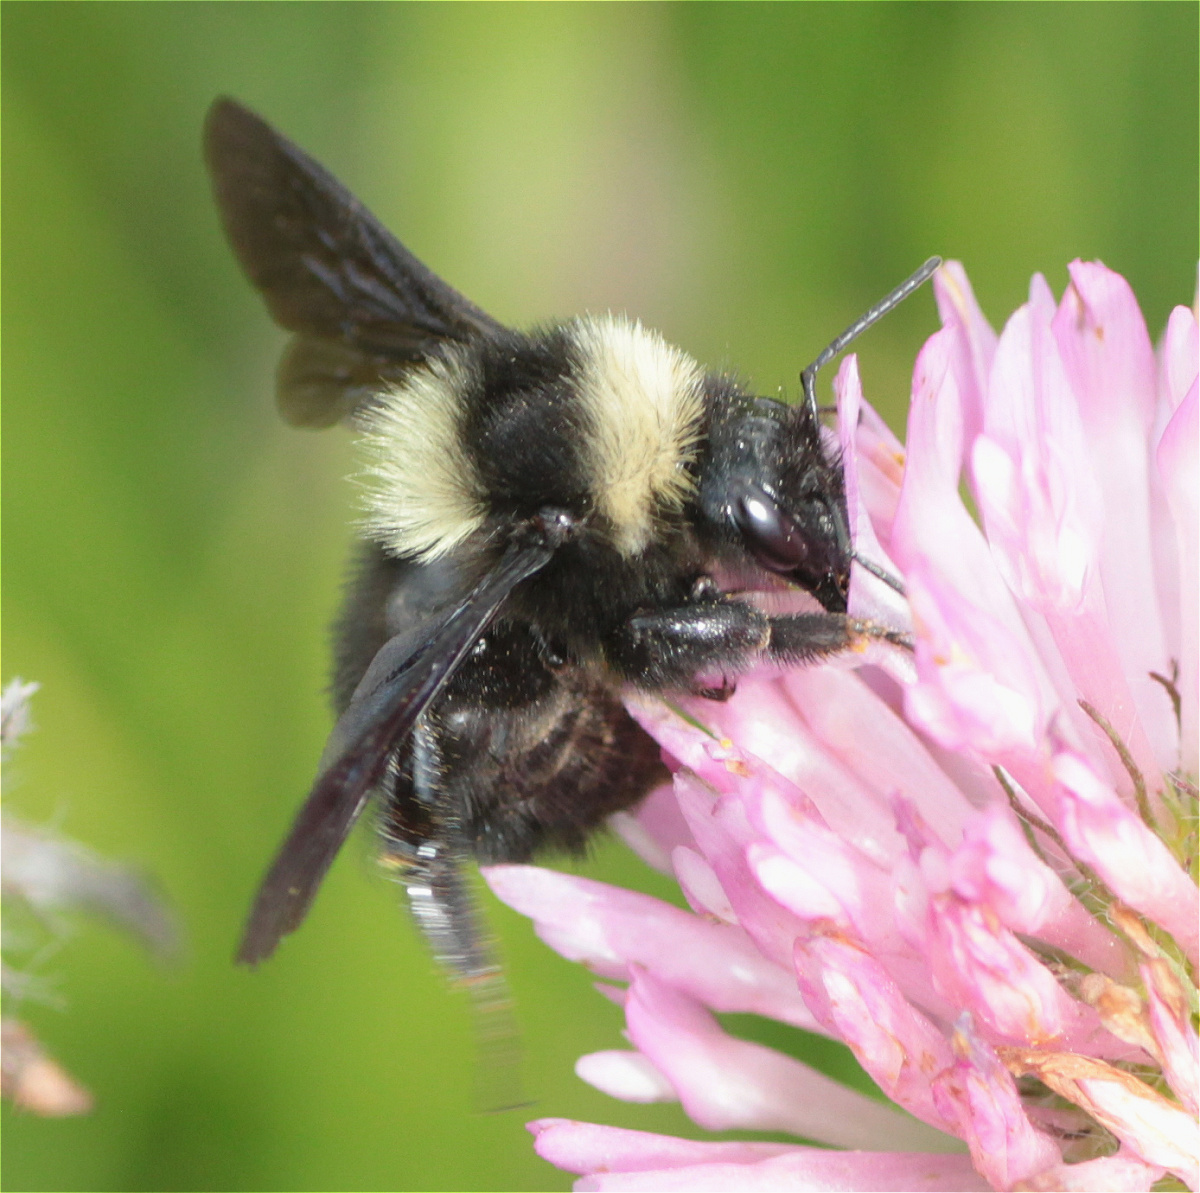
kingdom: Animalia
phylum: Arthropoda
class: Insecta
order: Hymenoptera
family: Apidae
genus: Bombus
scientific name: Bombus pauloensis
